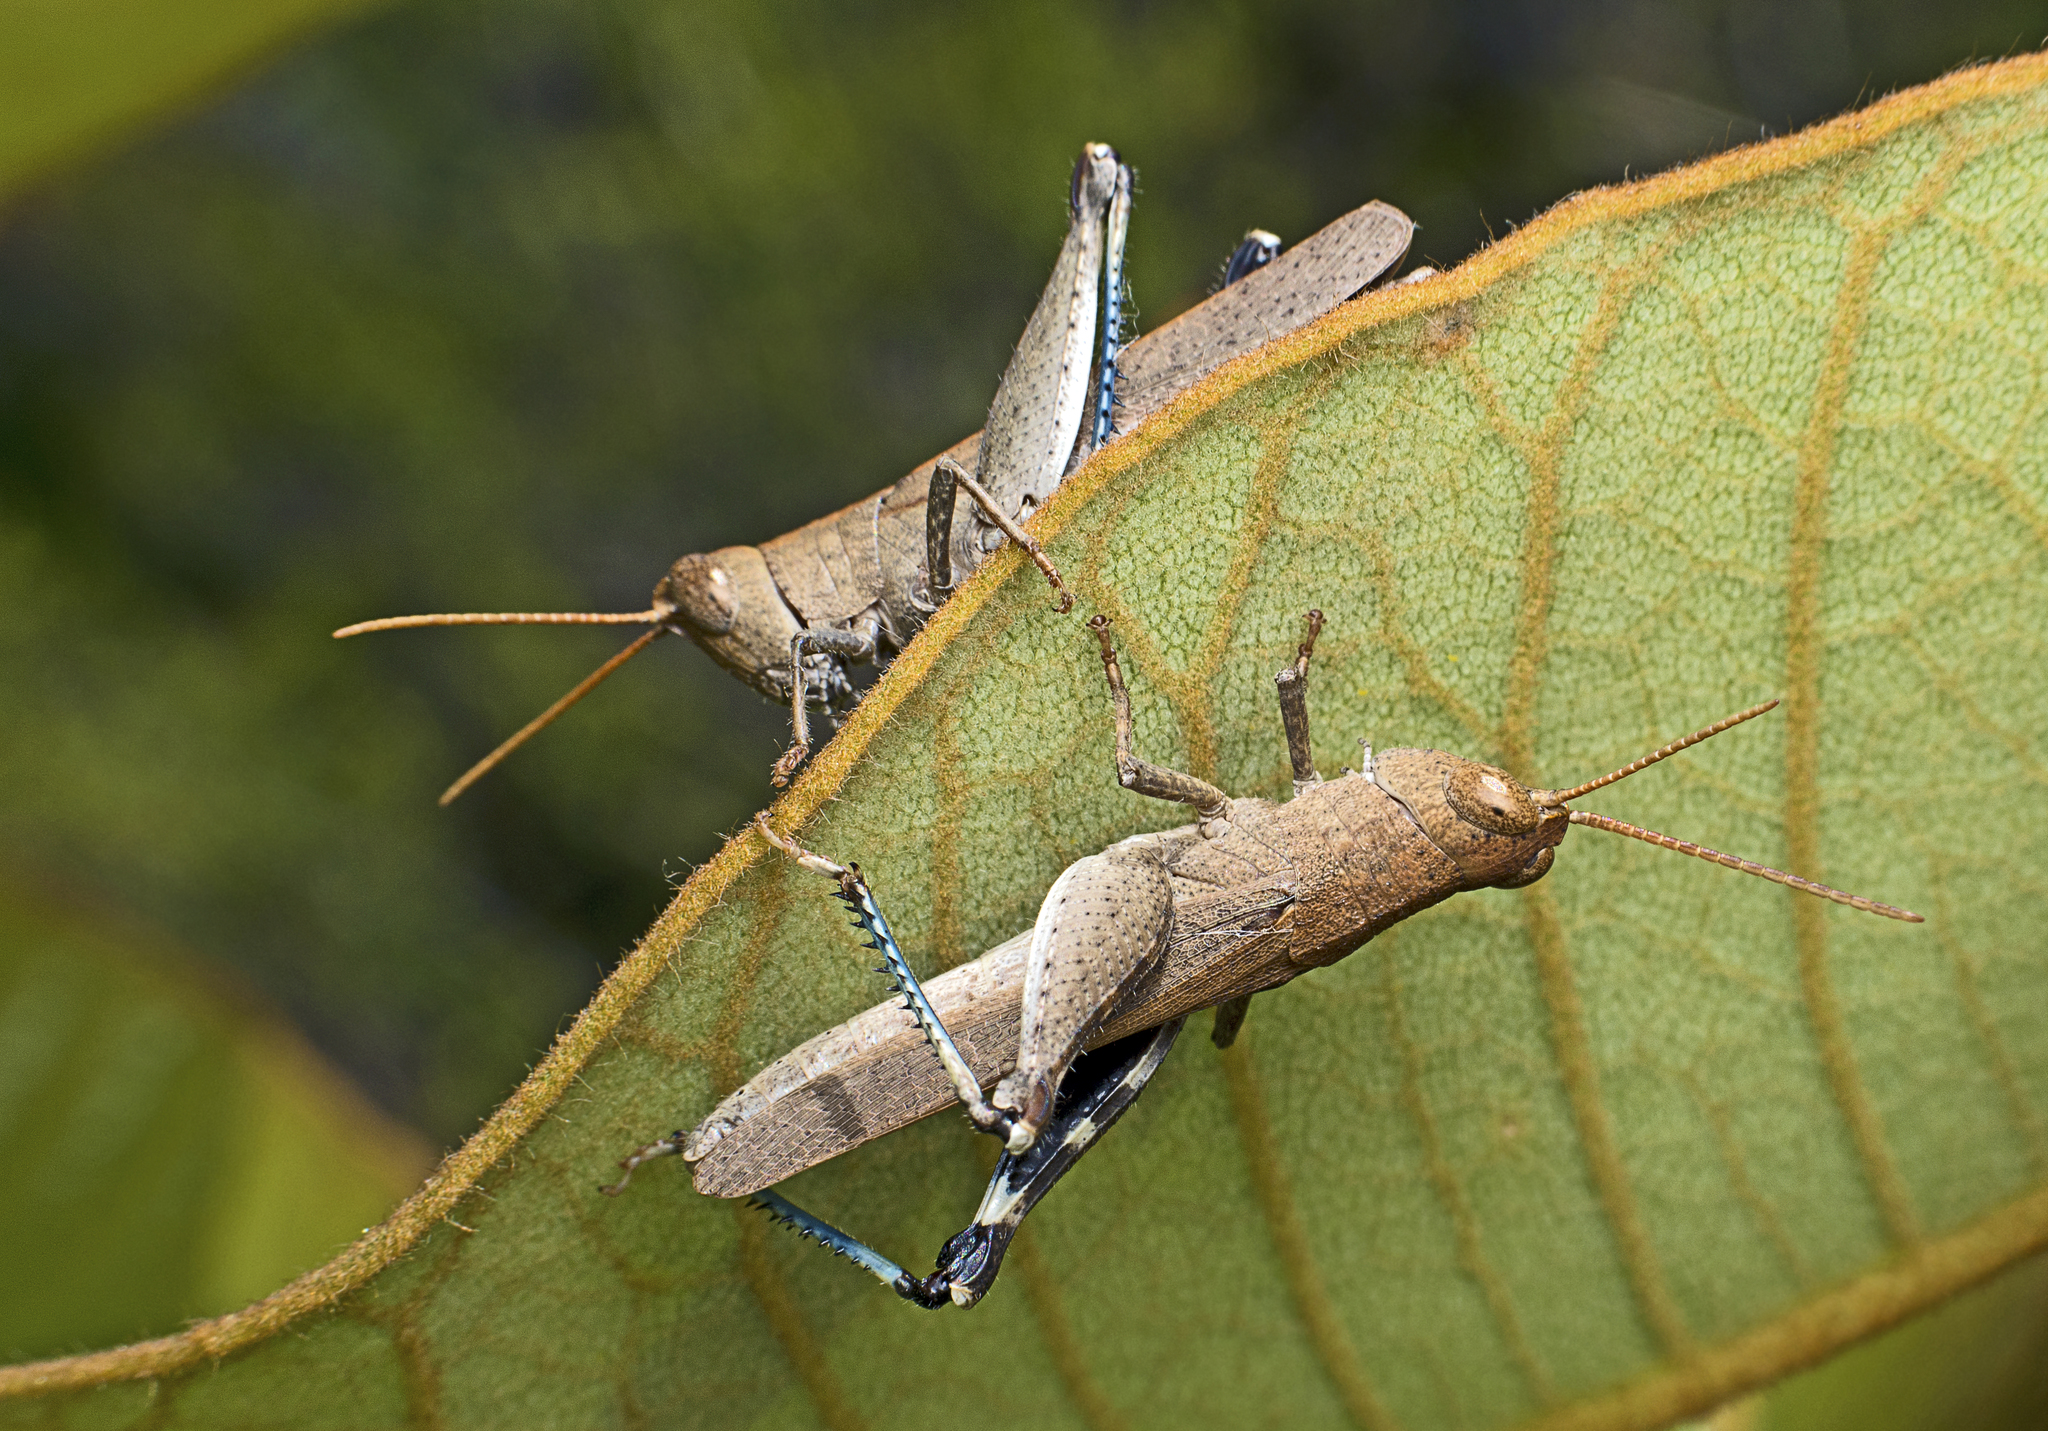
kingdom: Animalia
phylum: Arthropoda
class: Insecta
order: Orthoptera
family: Acrididae
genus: Goniaea
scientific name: Goniaea opomaloides
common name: Mimetic gumleaf grasshopper
